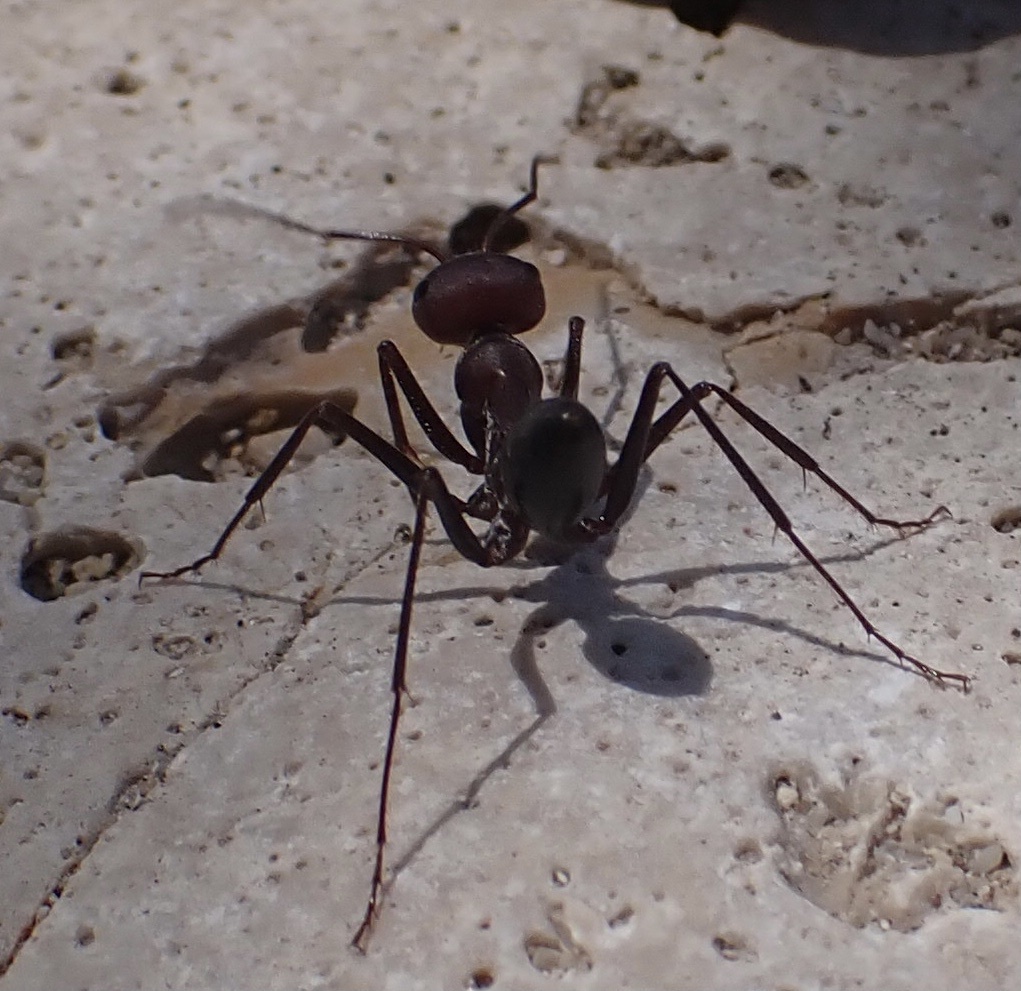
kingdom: Animalia
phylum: Arthropoda
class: Insecta
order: Hymenoptera
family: Formicidae
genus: Cataglyphis
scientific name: Cataglyphis nodus
